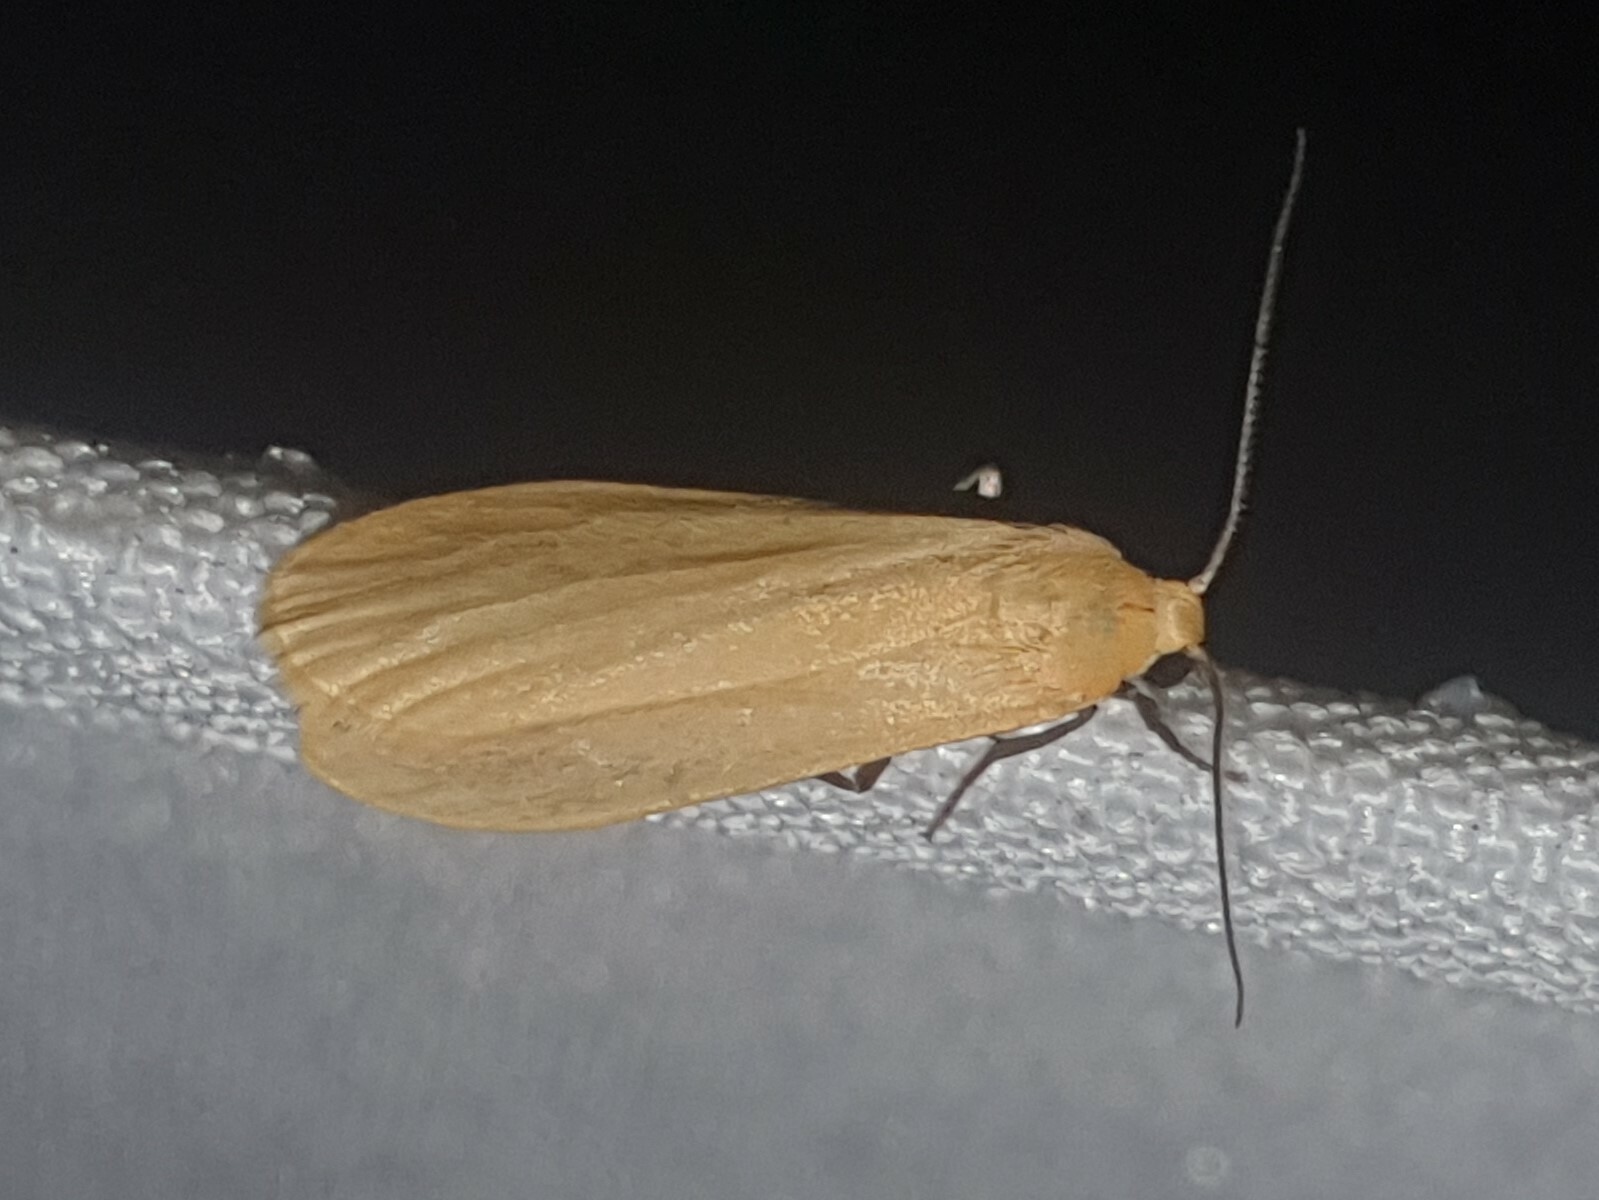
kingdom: Animalia
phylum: Arthropoda
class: Insecta
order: Lepidoptera
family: Erebidae
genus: Wittia
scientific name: Wittia sororcula
